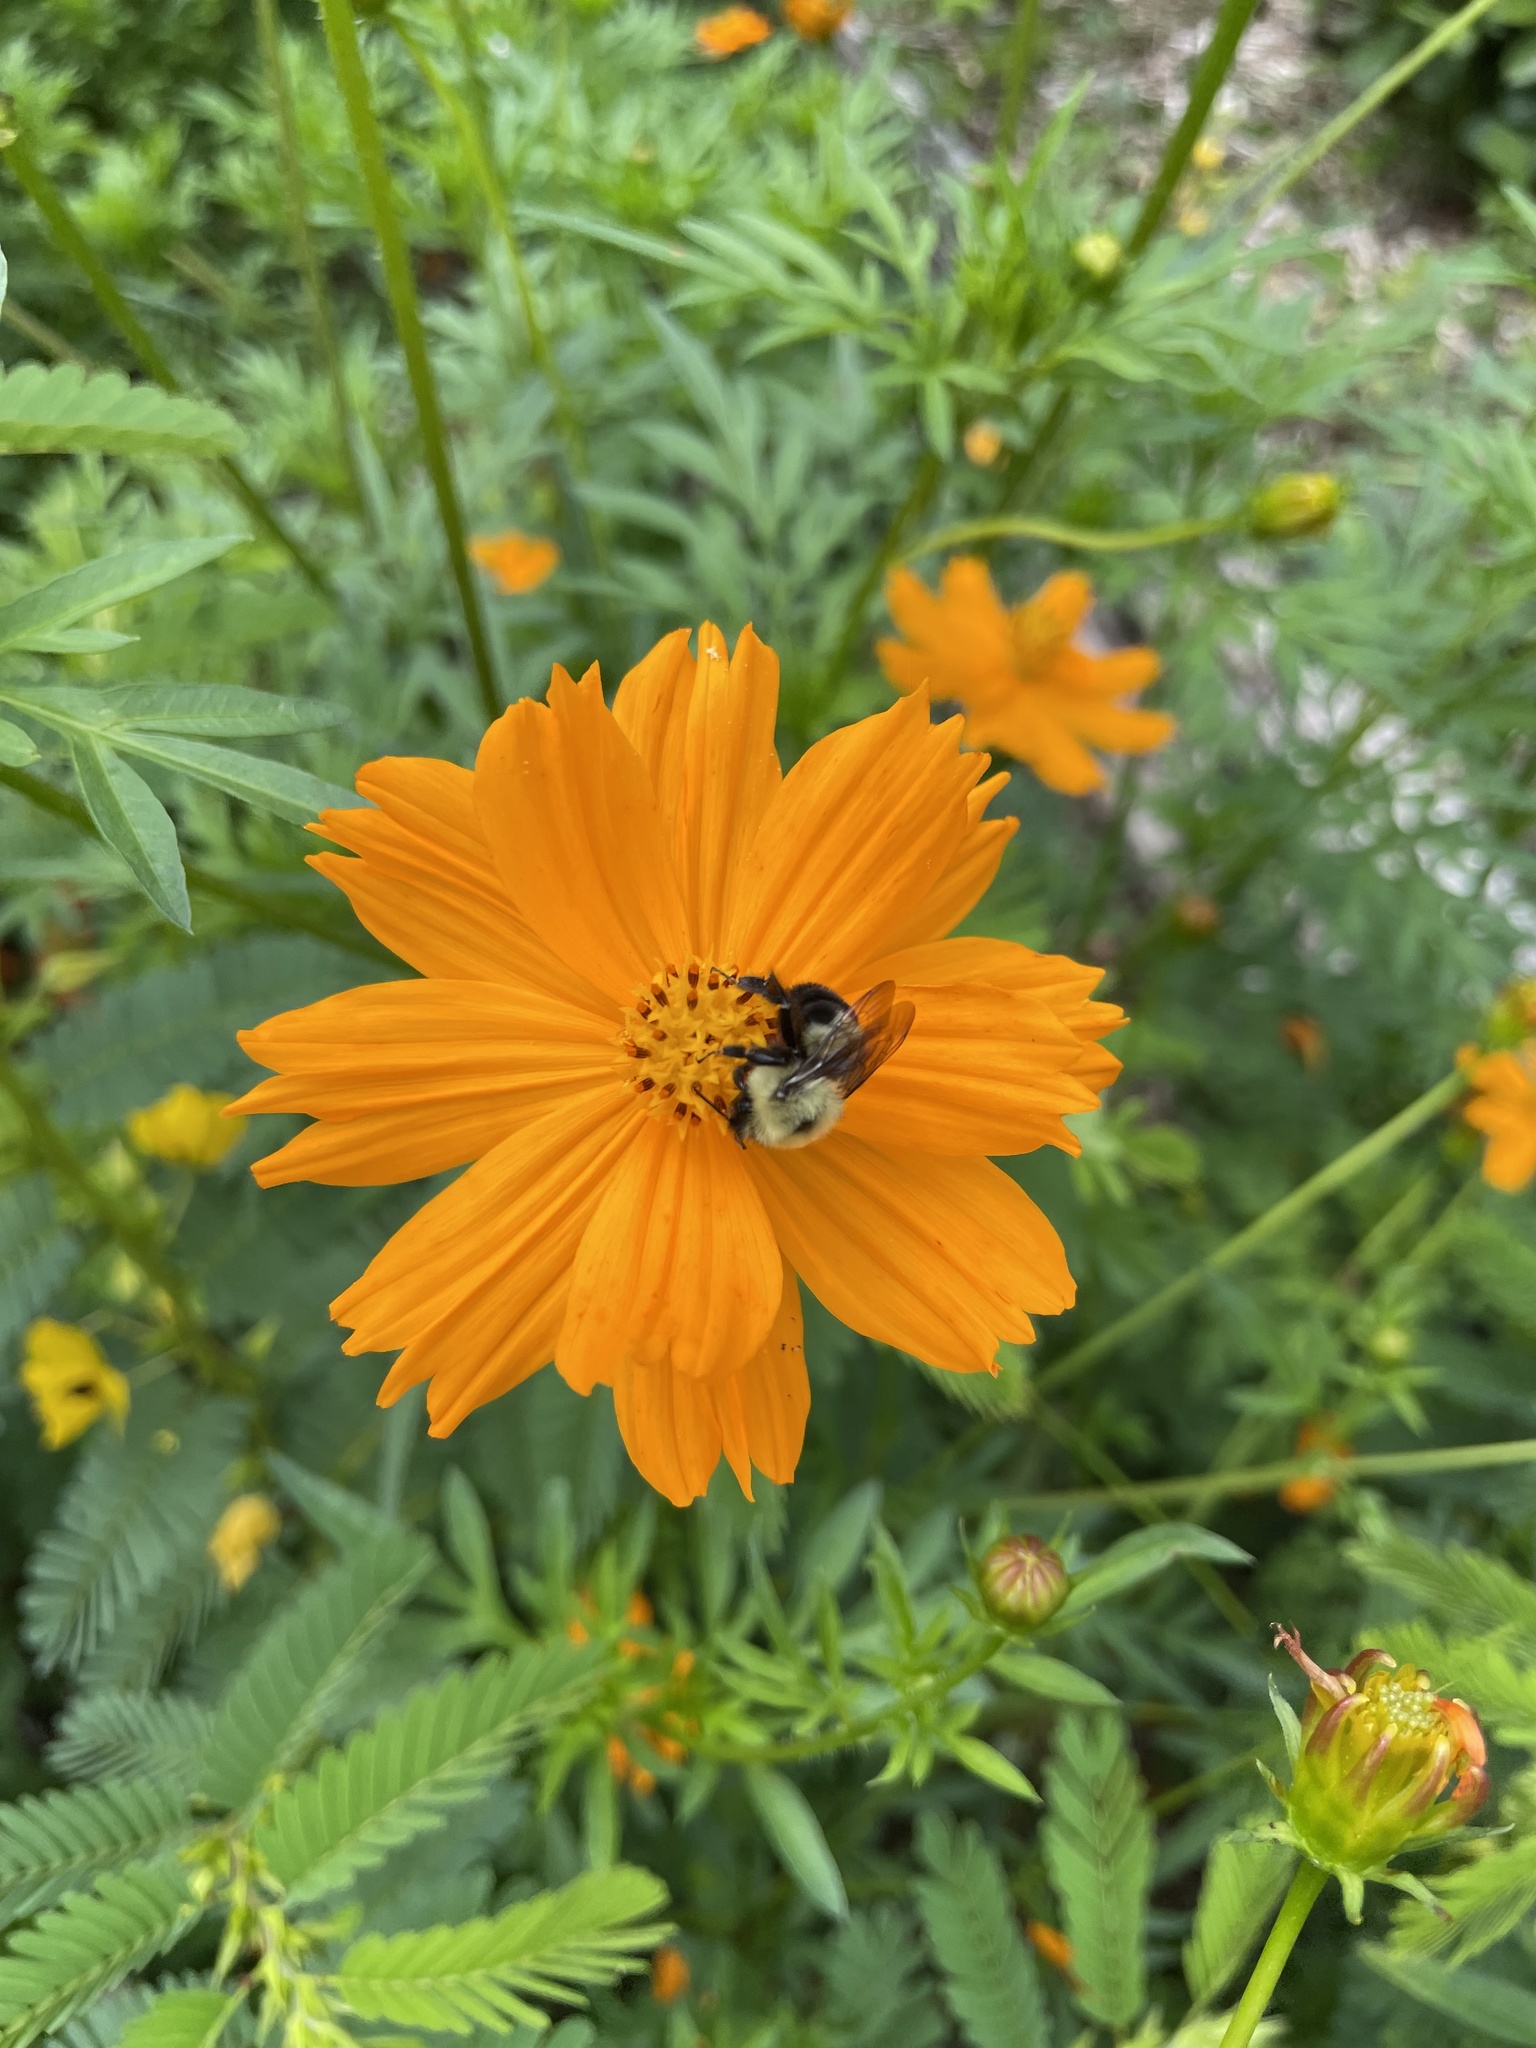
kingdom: Animalia
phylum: Arthropoda
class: Insecta
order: Hymenoptera
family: Apidae
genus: Bombus
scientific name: Bombus bimaculatus
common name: Two-spotted bumble bee
